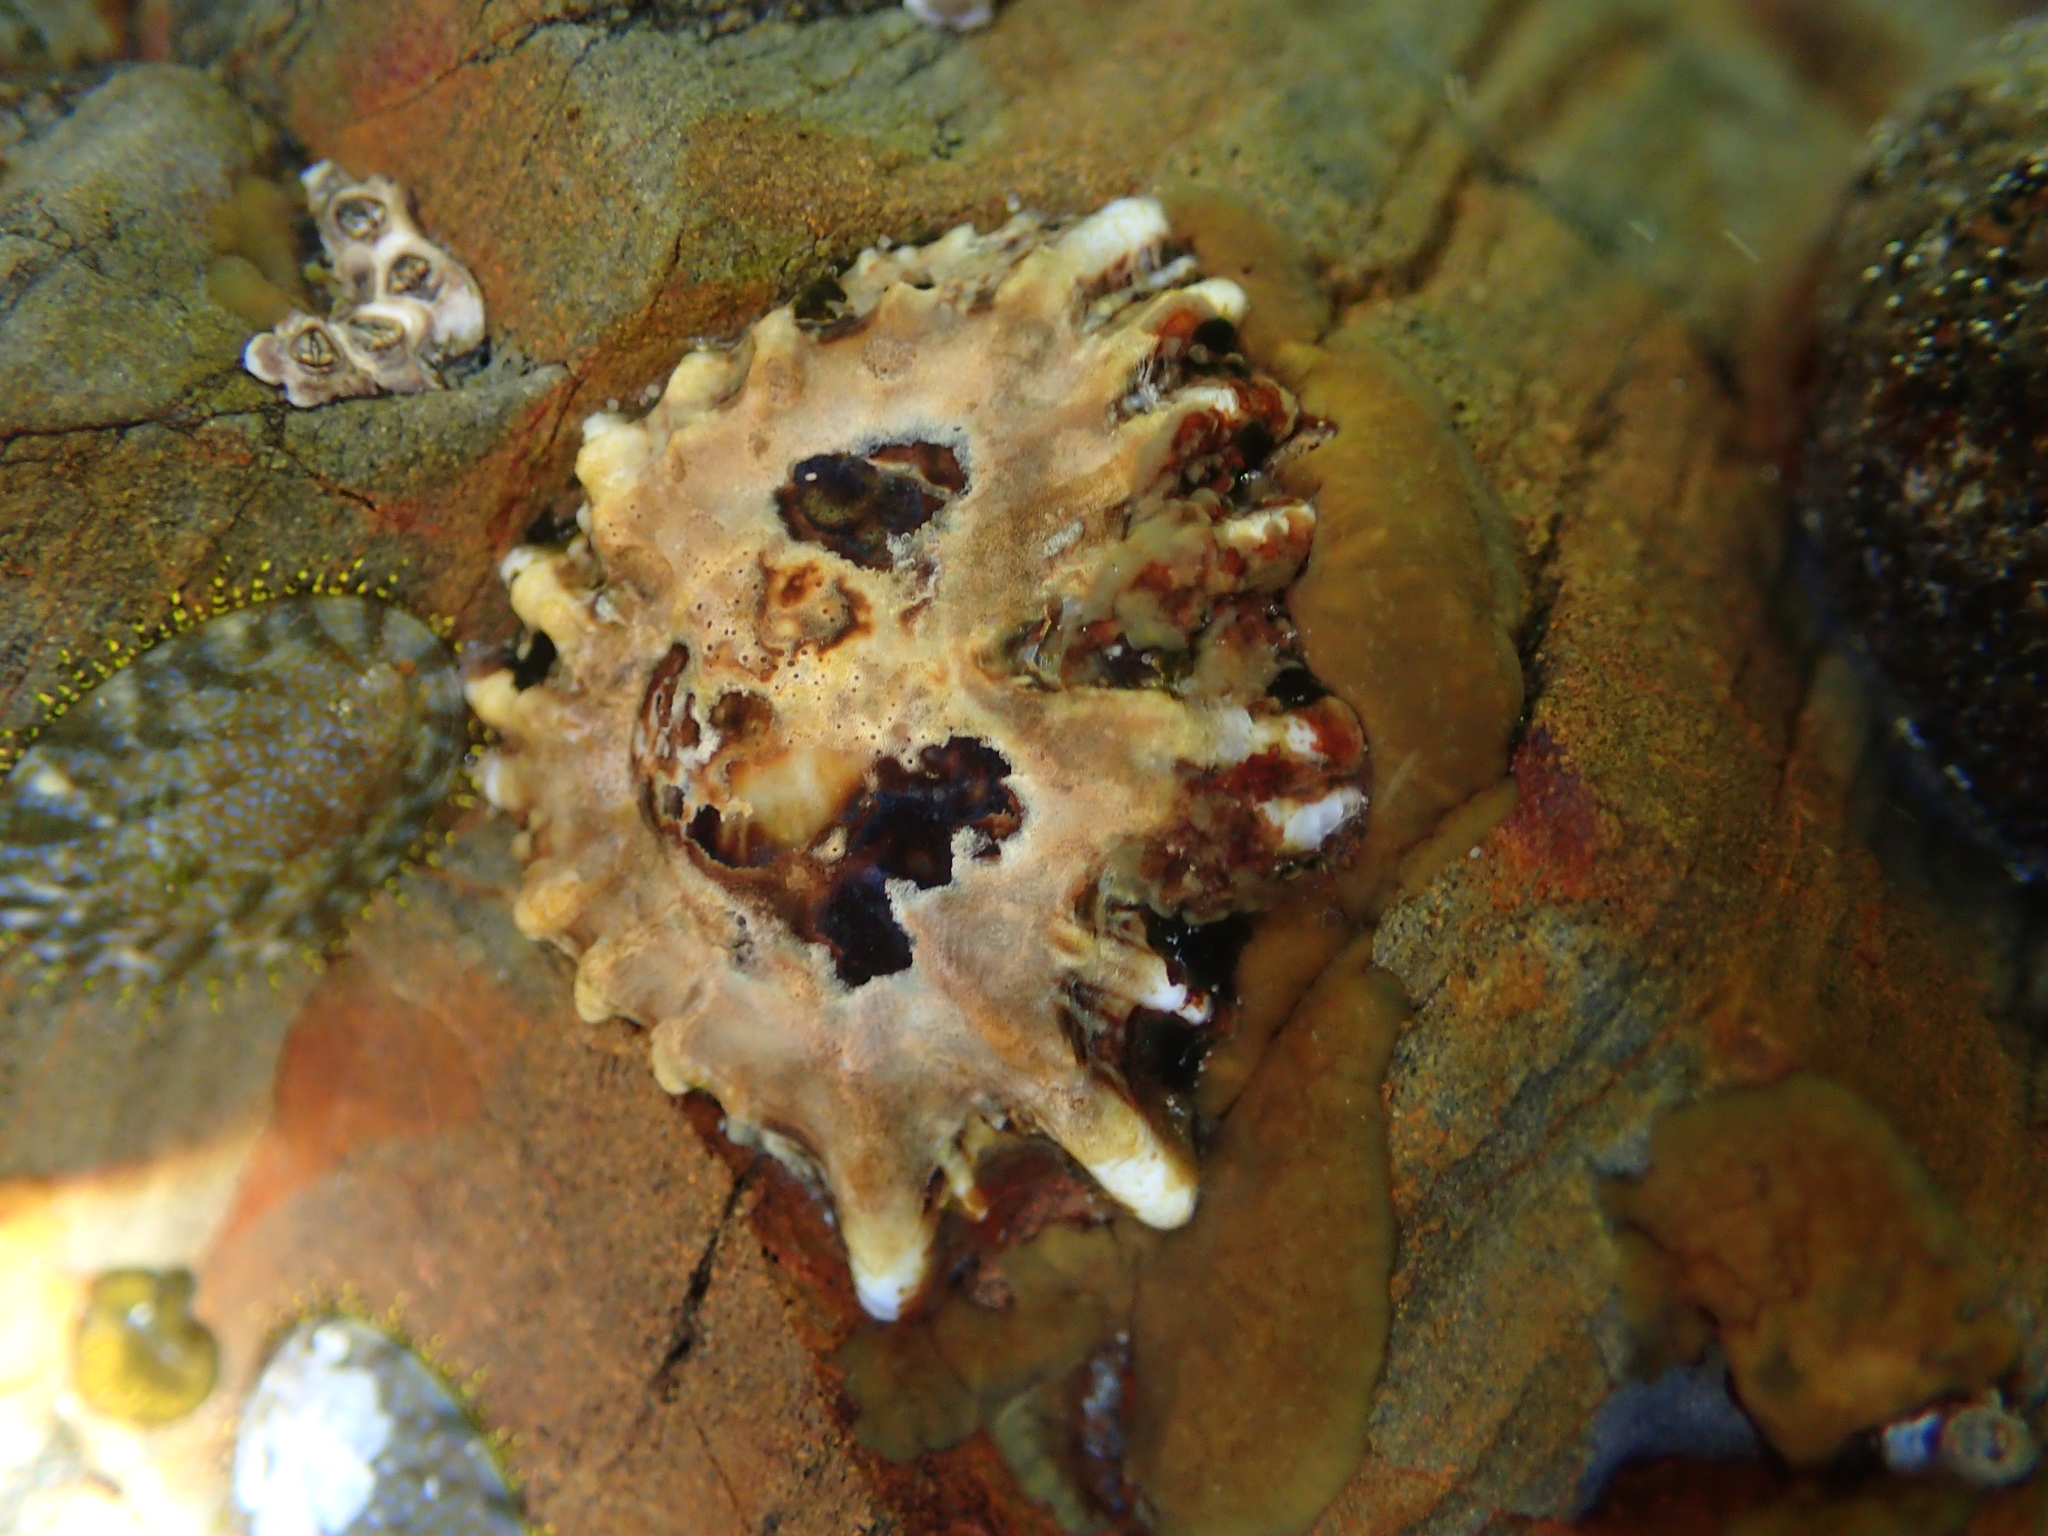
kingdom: Animalia
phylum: Mollusca
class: Gastropoda
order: Siphonariida
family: Siphonariidae
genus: Siphonaria
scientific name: Siphonaria australis
